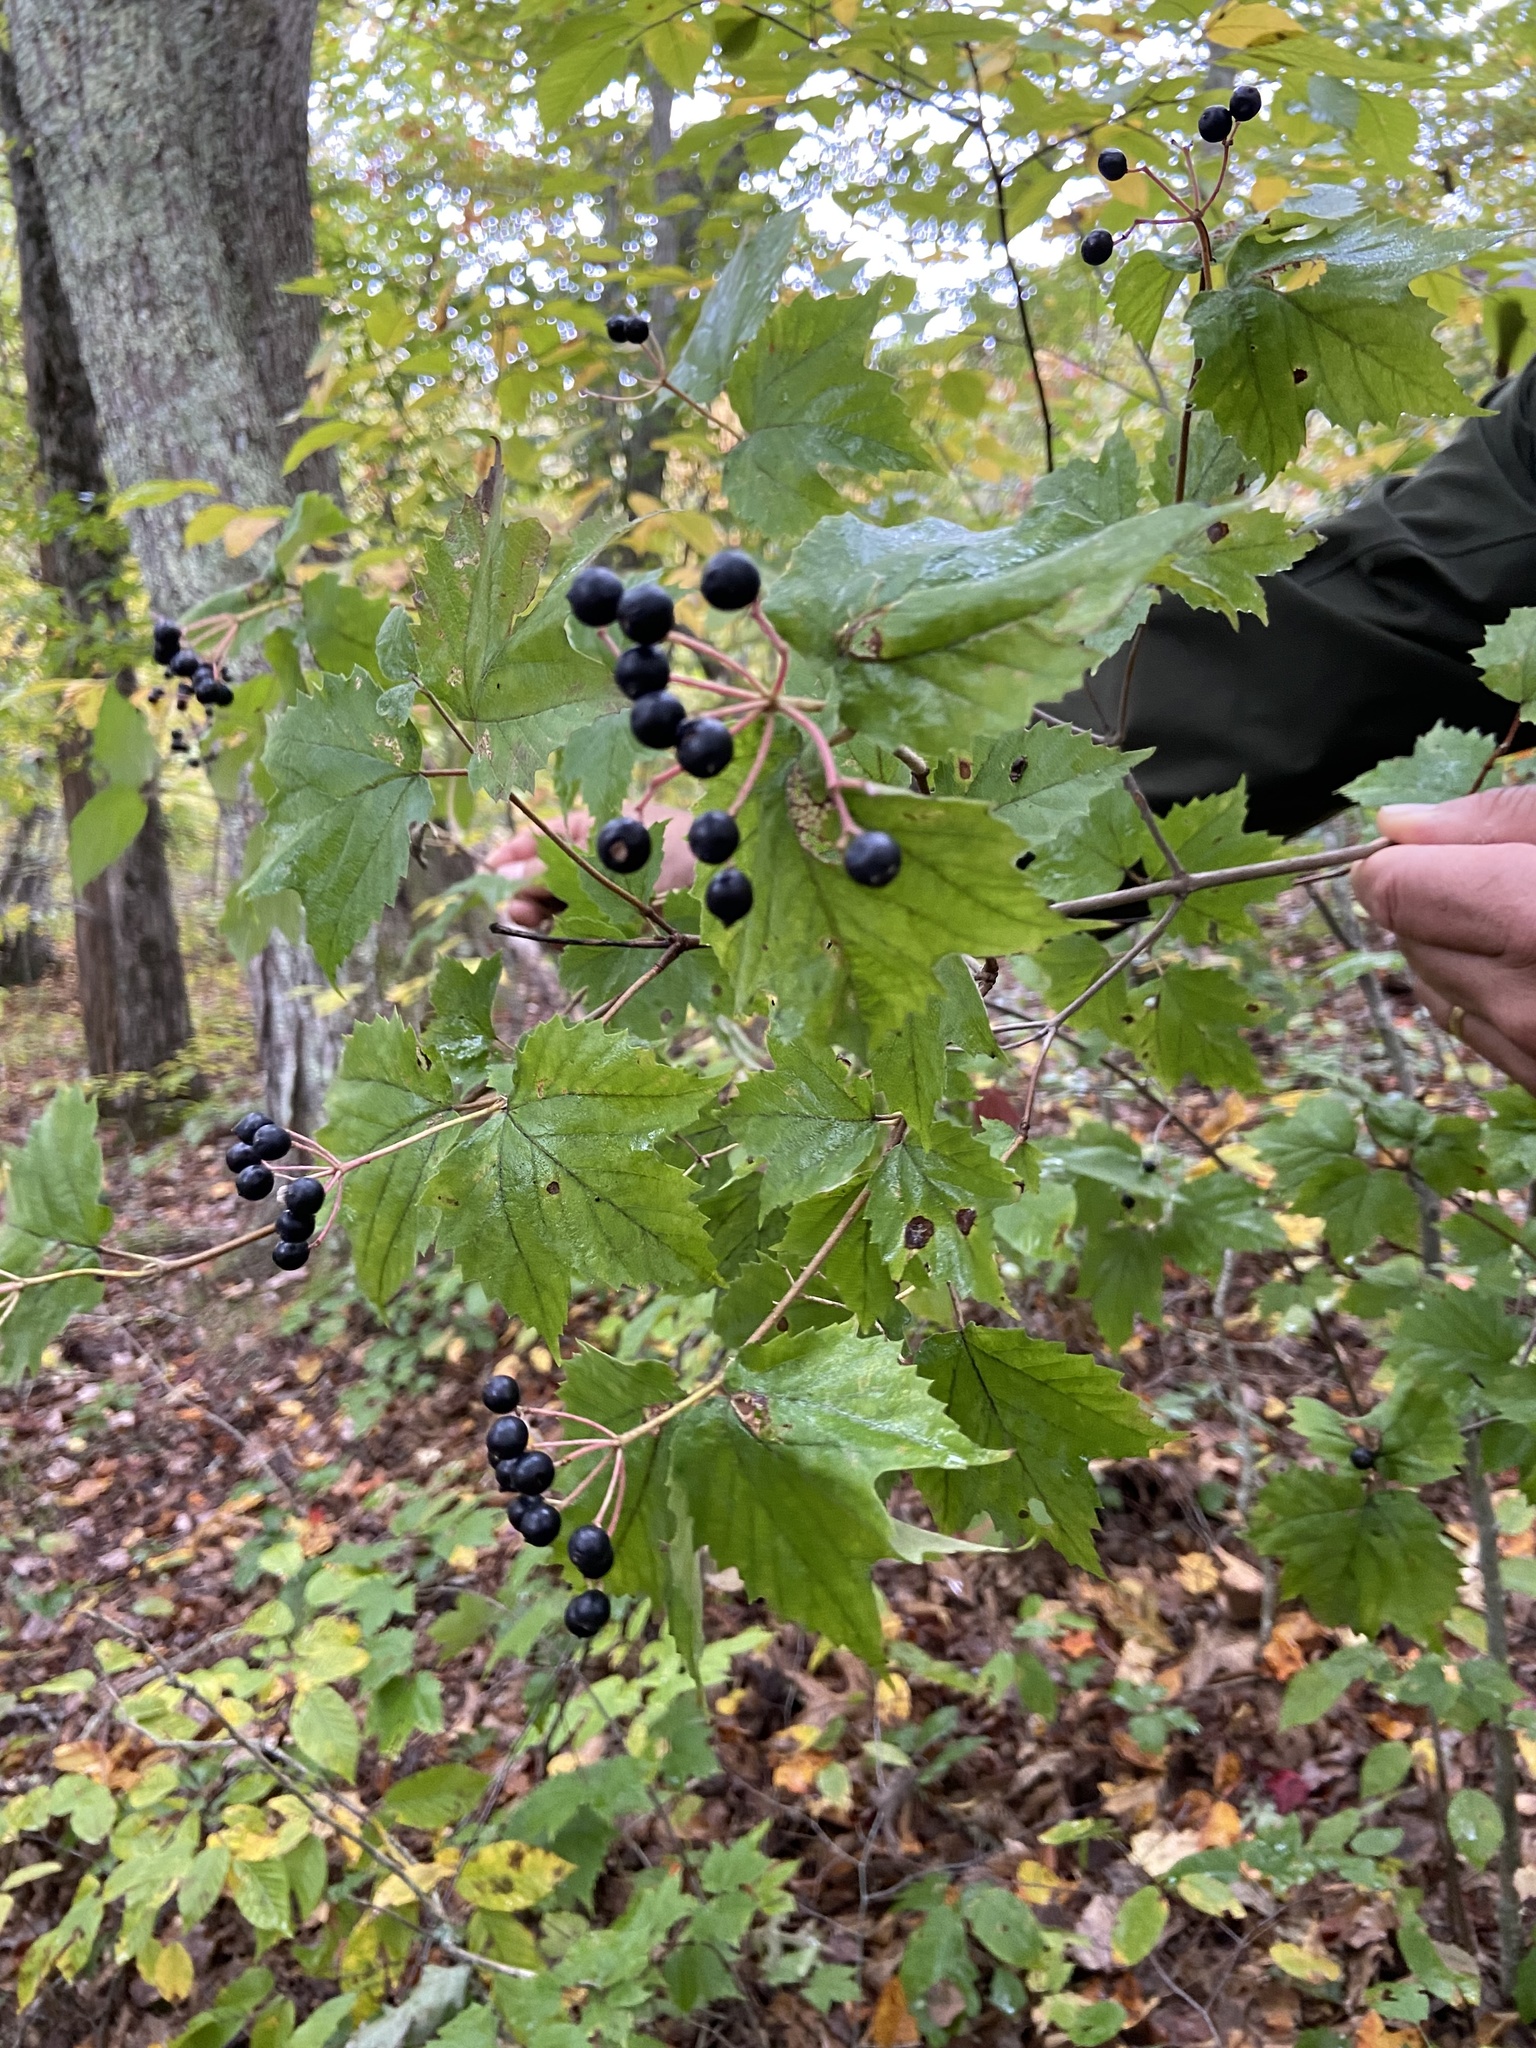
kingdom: Plantae
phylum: Tracheophyta
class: Magnoliopsida
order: Dipsacales
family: Viburnaceae
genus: Viburnum
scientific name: Viburnum acerifolium
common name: Dockmackie
